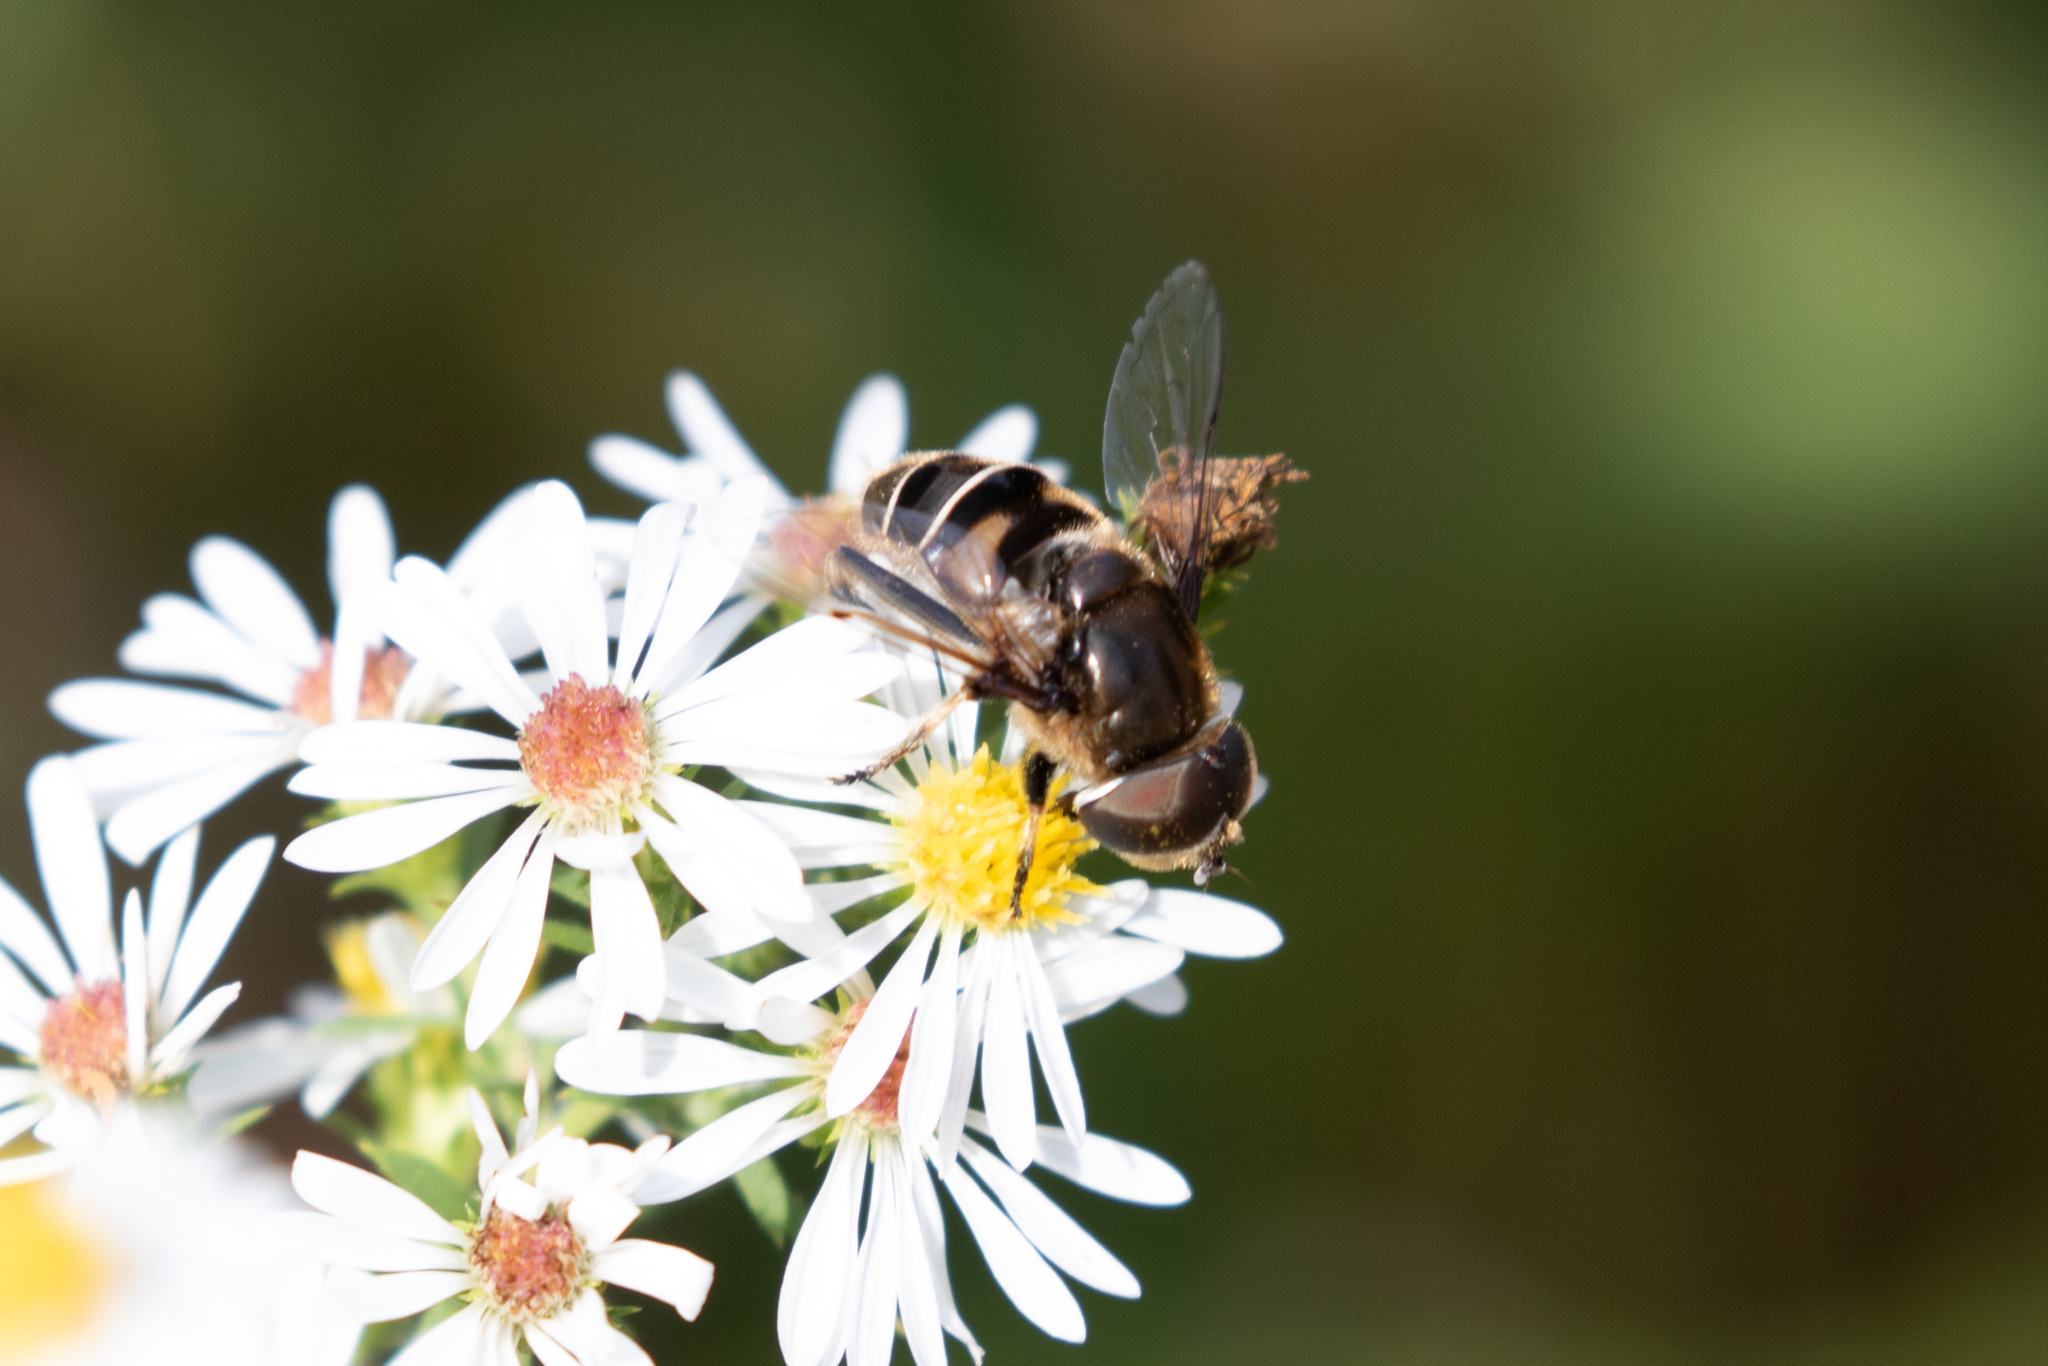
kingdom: Animalia
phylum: Arthropoda
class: Insecta
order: Diptera
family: Syrphidae
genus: Eristalis
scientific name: Eristalis dimidiata
